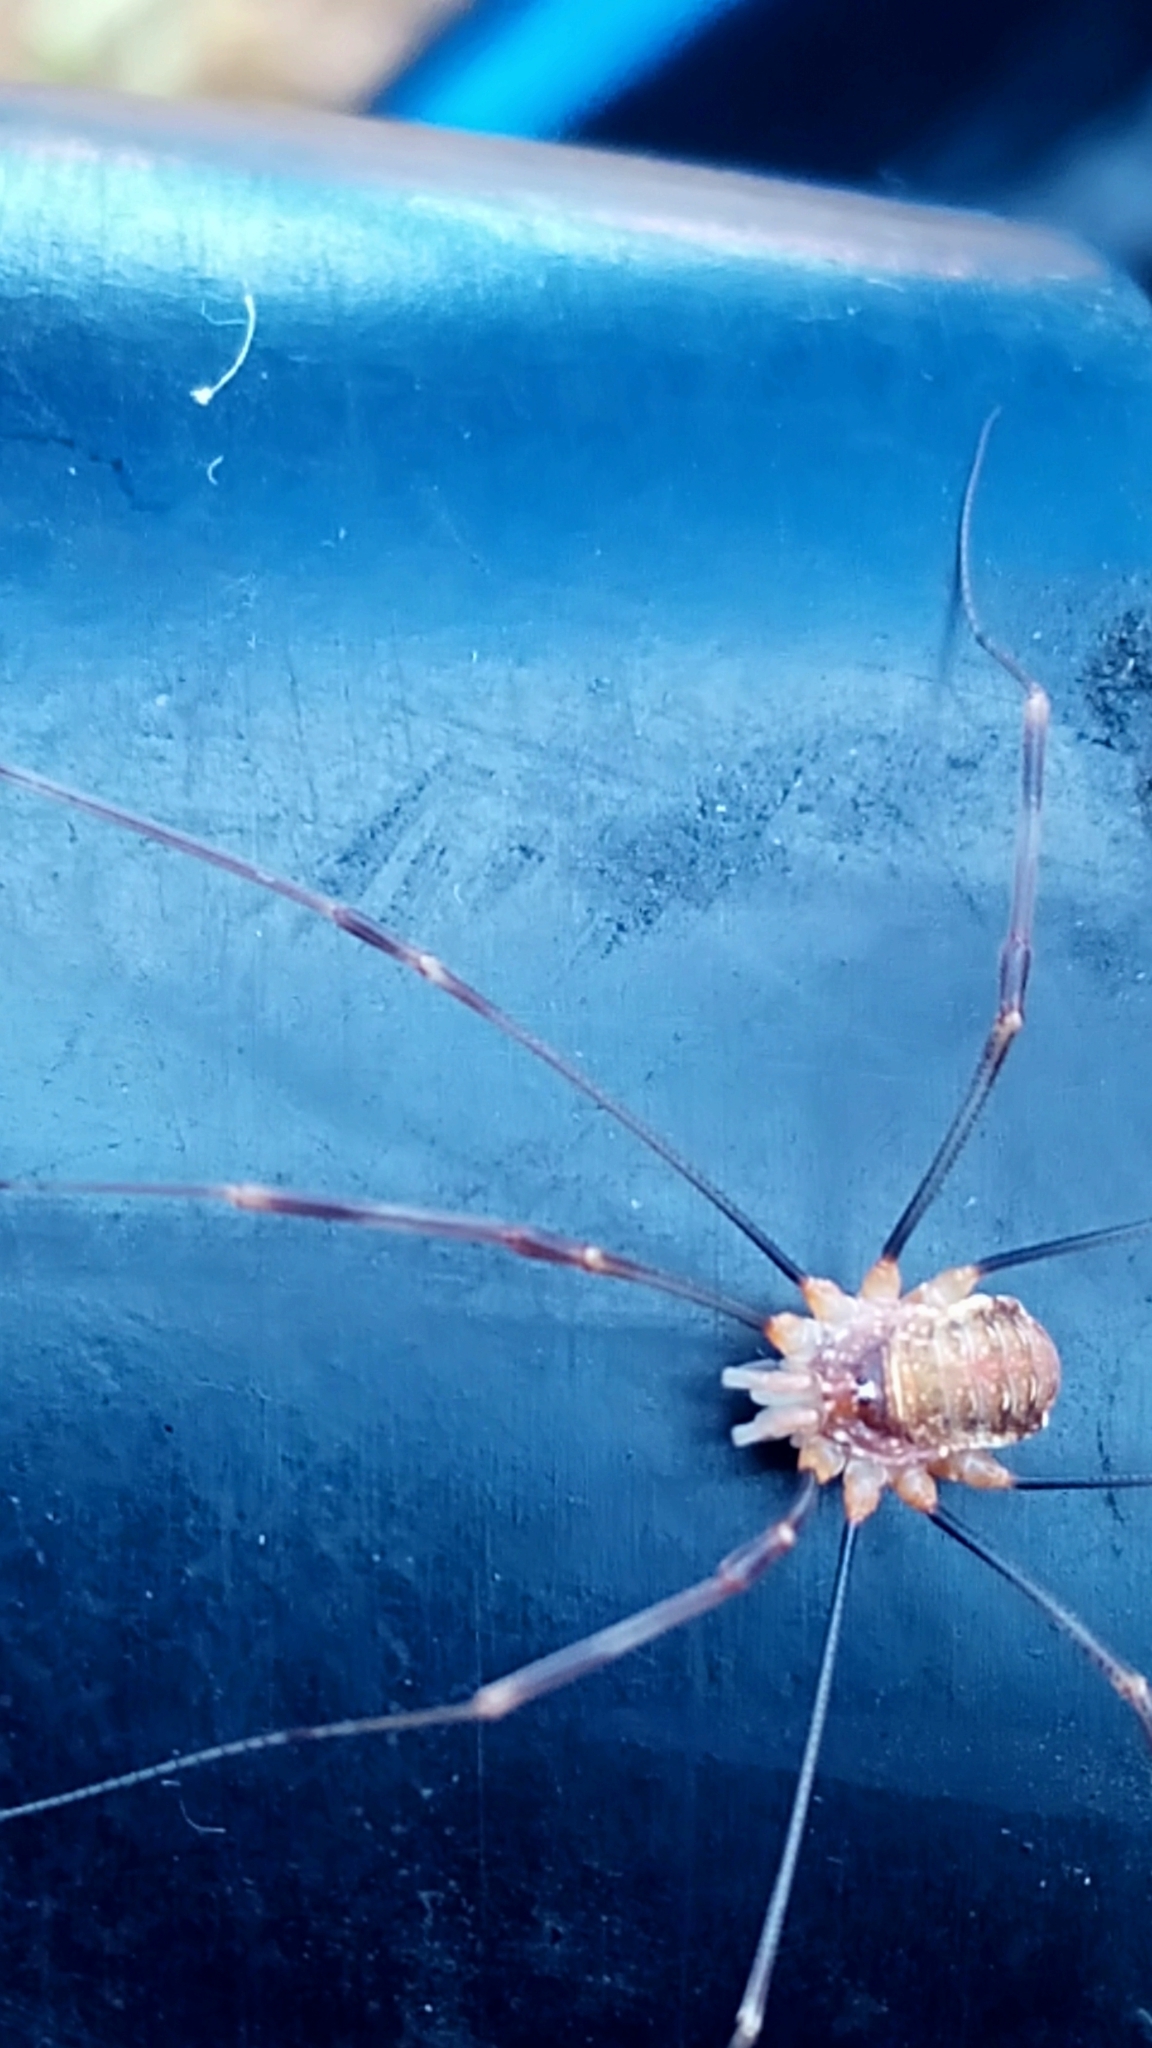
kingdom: Animalia
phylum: Arthropoda
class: Arachnida
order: Opiliones
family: Phalangiidae
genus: Opilio
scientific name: Opilio canestrinii
